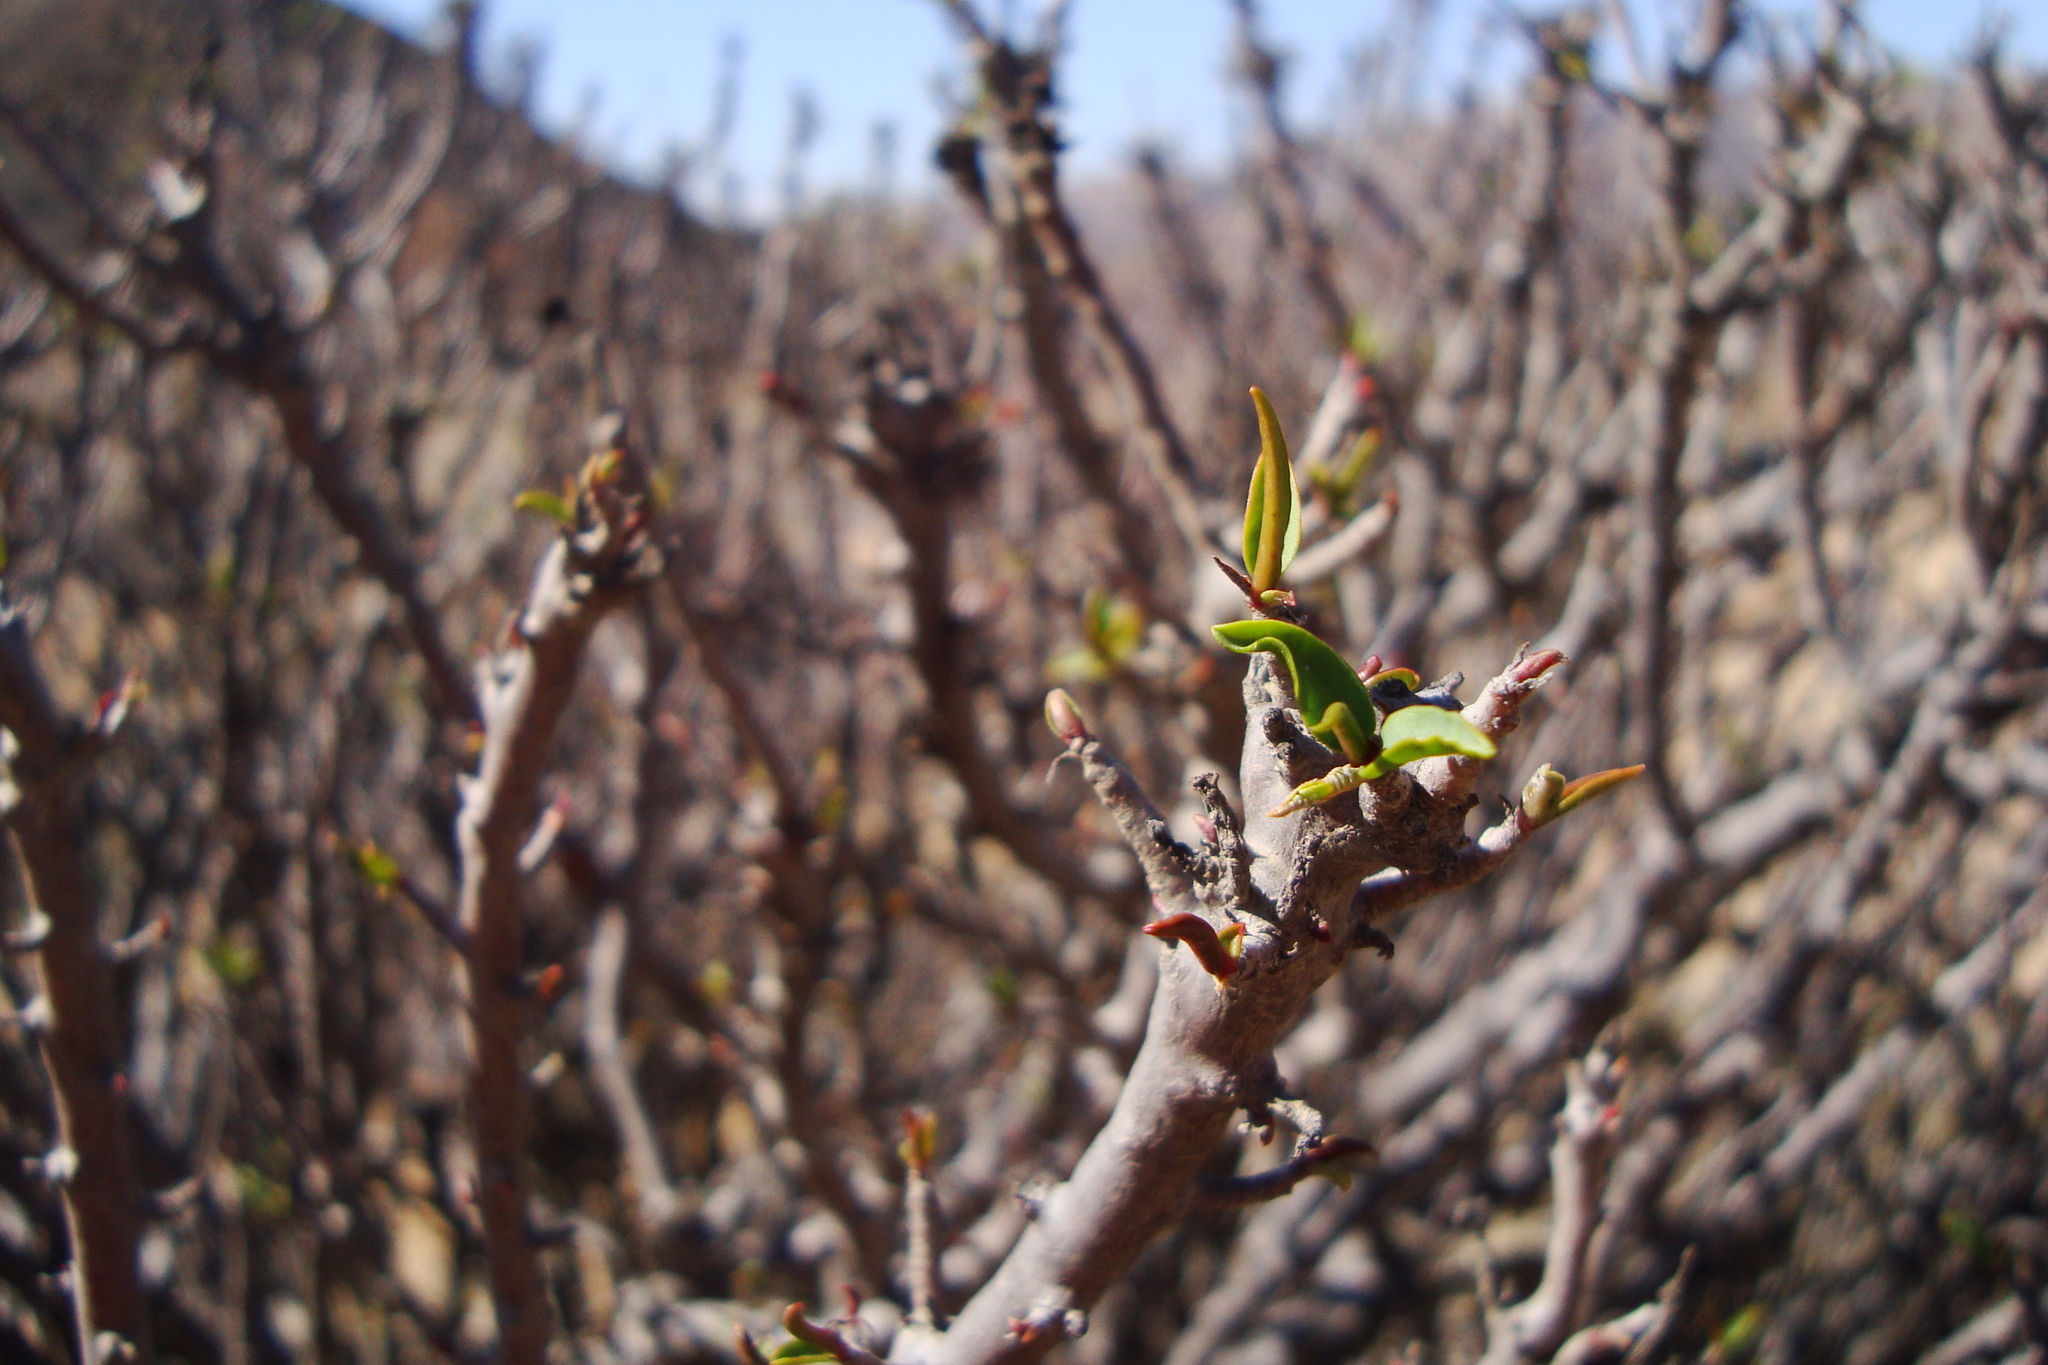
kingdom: Plantae
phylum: Tracheophyta
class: Magnoliopsida
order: Malpighiales
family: Euphorbiaceae
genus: Euphorbia
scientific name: Euphorbia lactiflua
